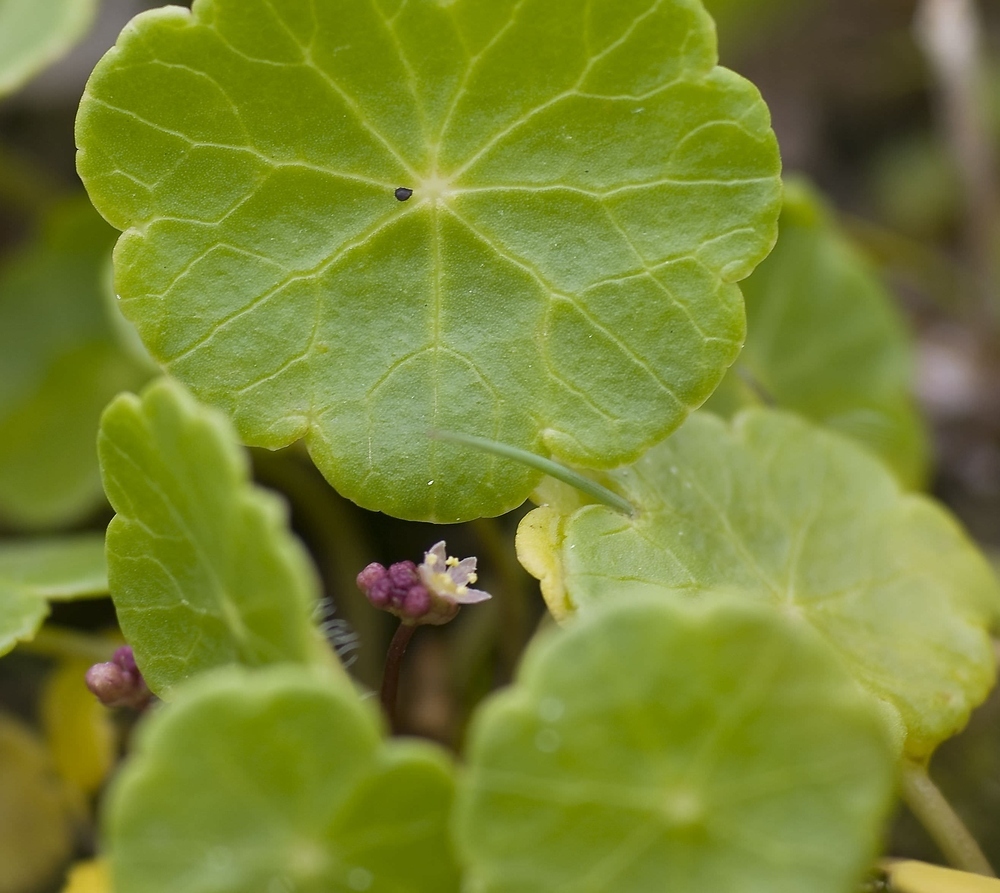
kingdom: Plantae
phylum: Tracheophyta
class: Magnoliopsida
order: Apiales
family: Araliaceae
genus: Hydrocotyle
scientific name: Hydrocotyle vulgaris
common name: Marsh pennywort
